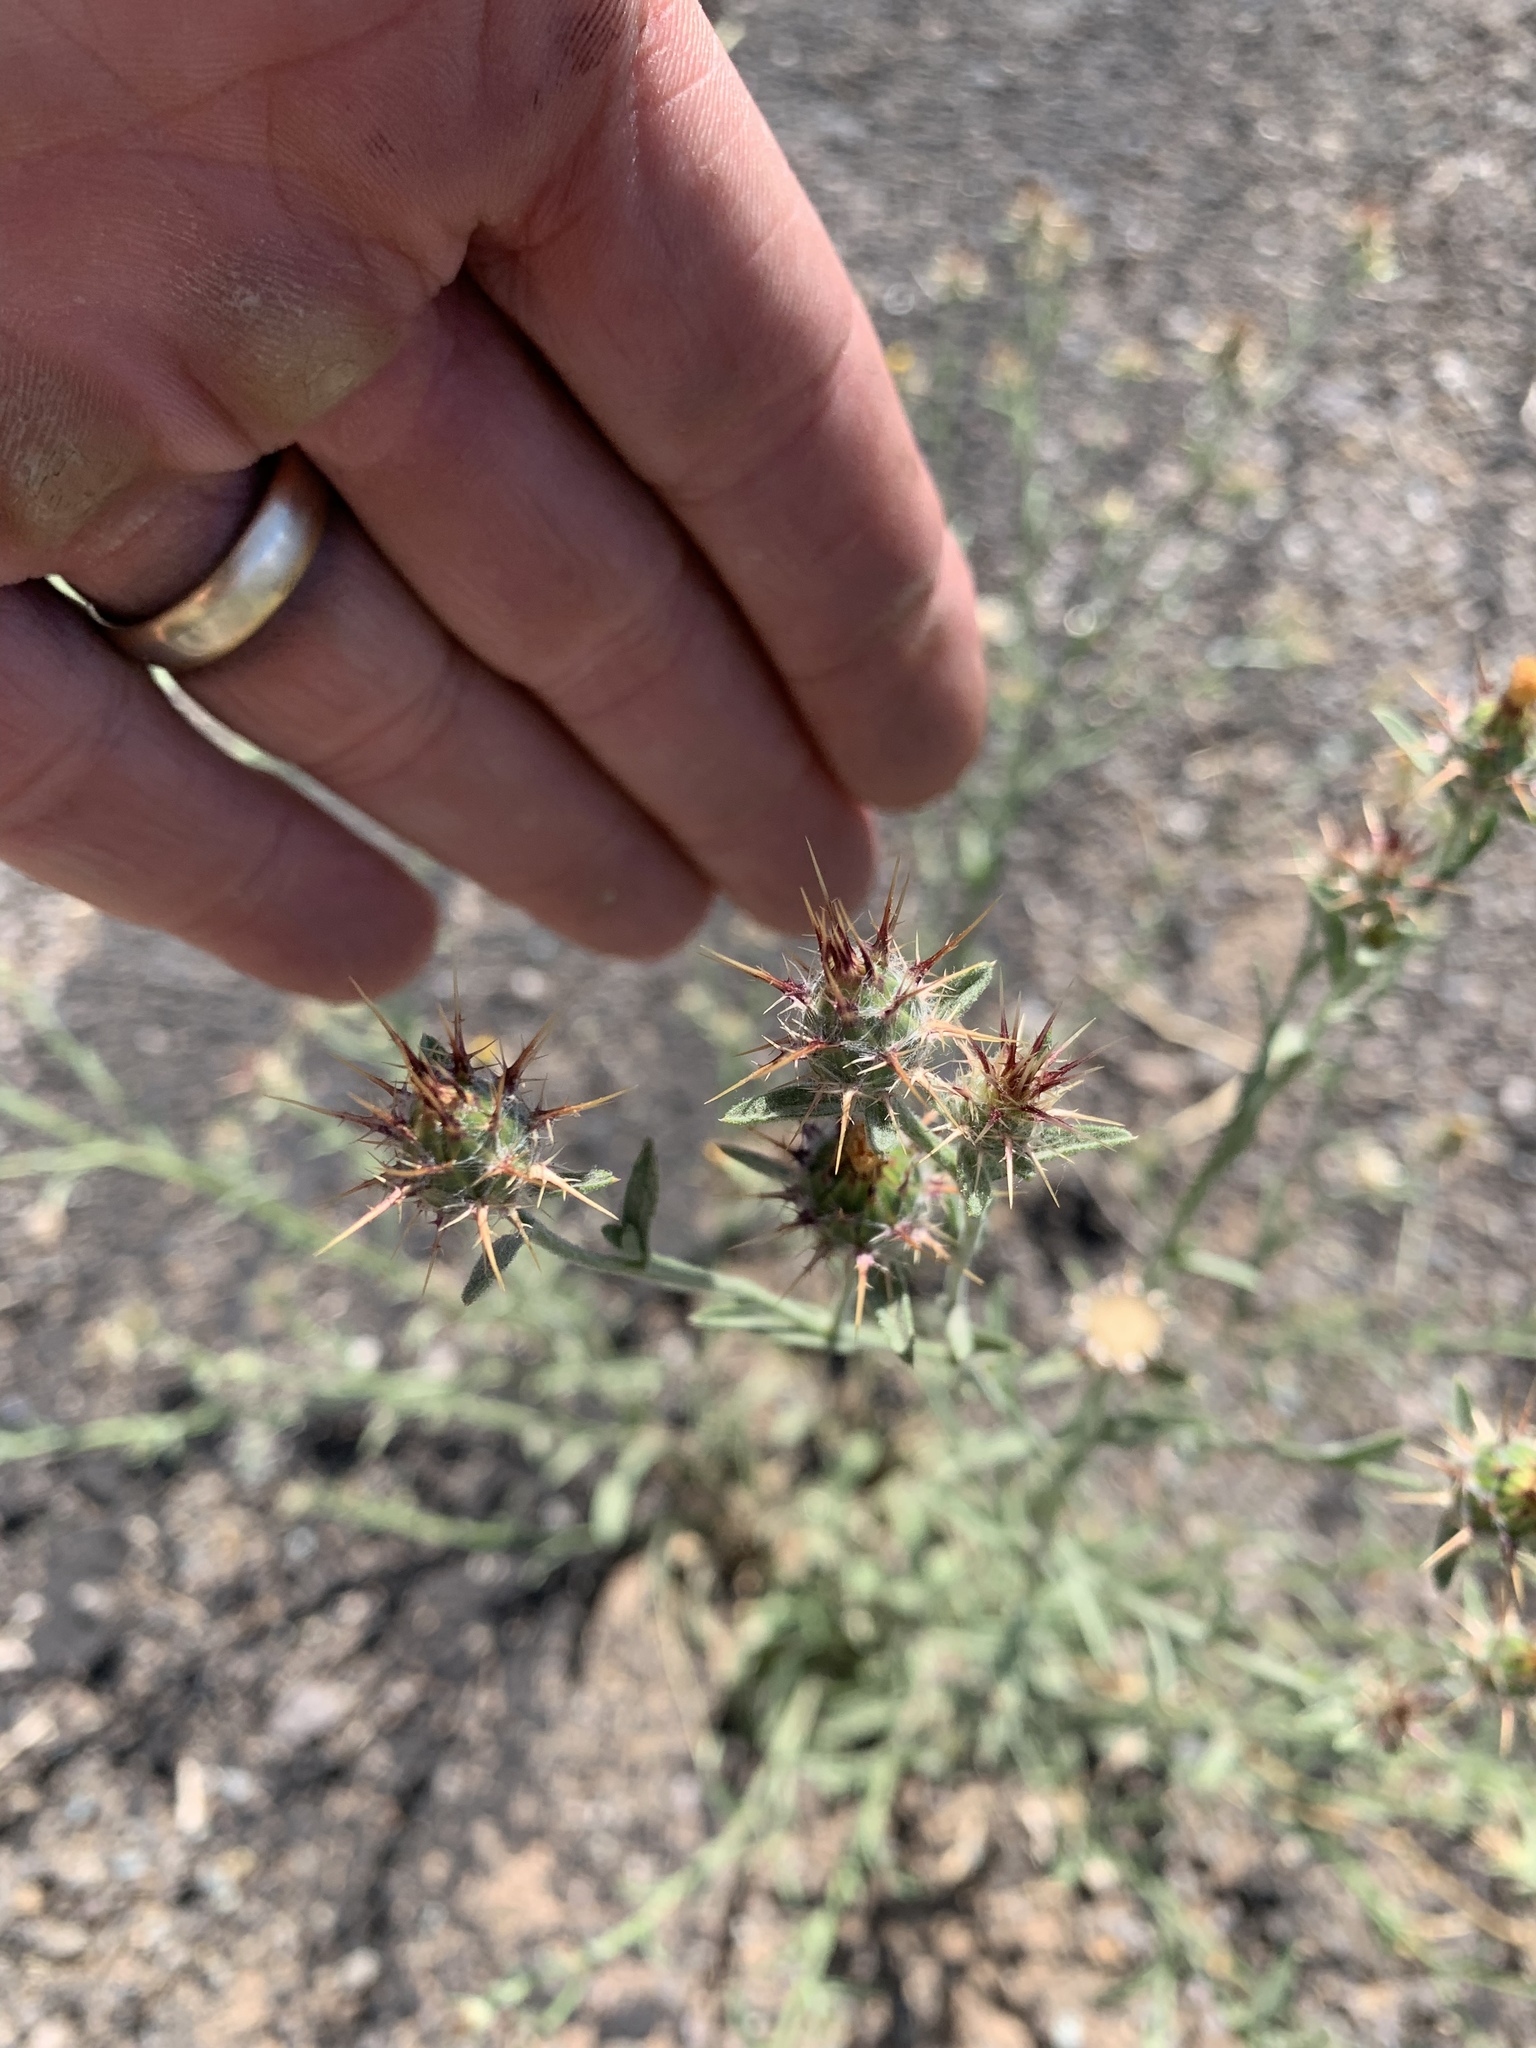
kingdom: Plantae
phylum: Tracheophyta
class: Magnoliopsida
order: Asterales
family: Asteraceae
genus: Centaurea
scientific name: Centaurea melitensis
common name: Maltese star-thistle
